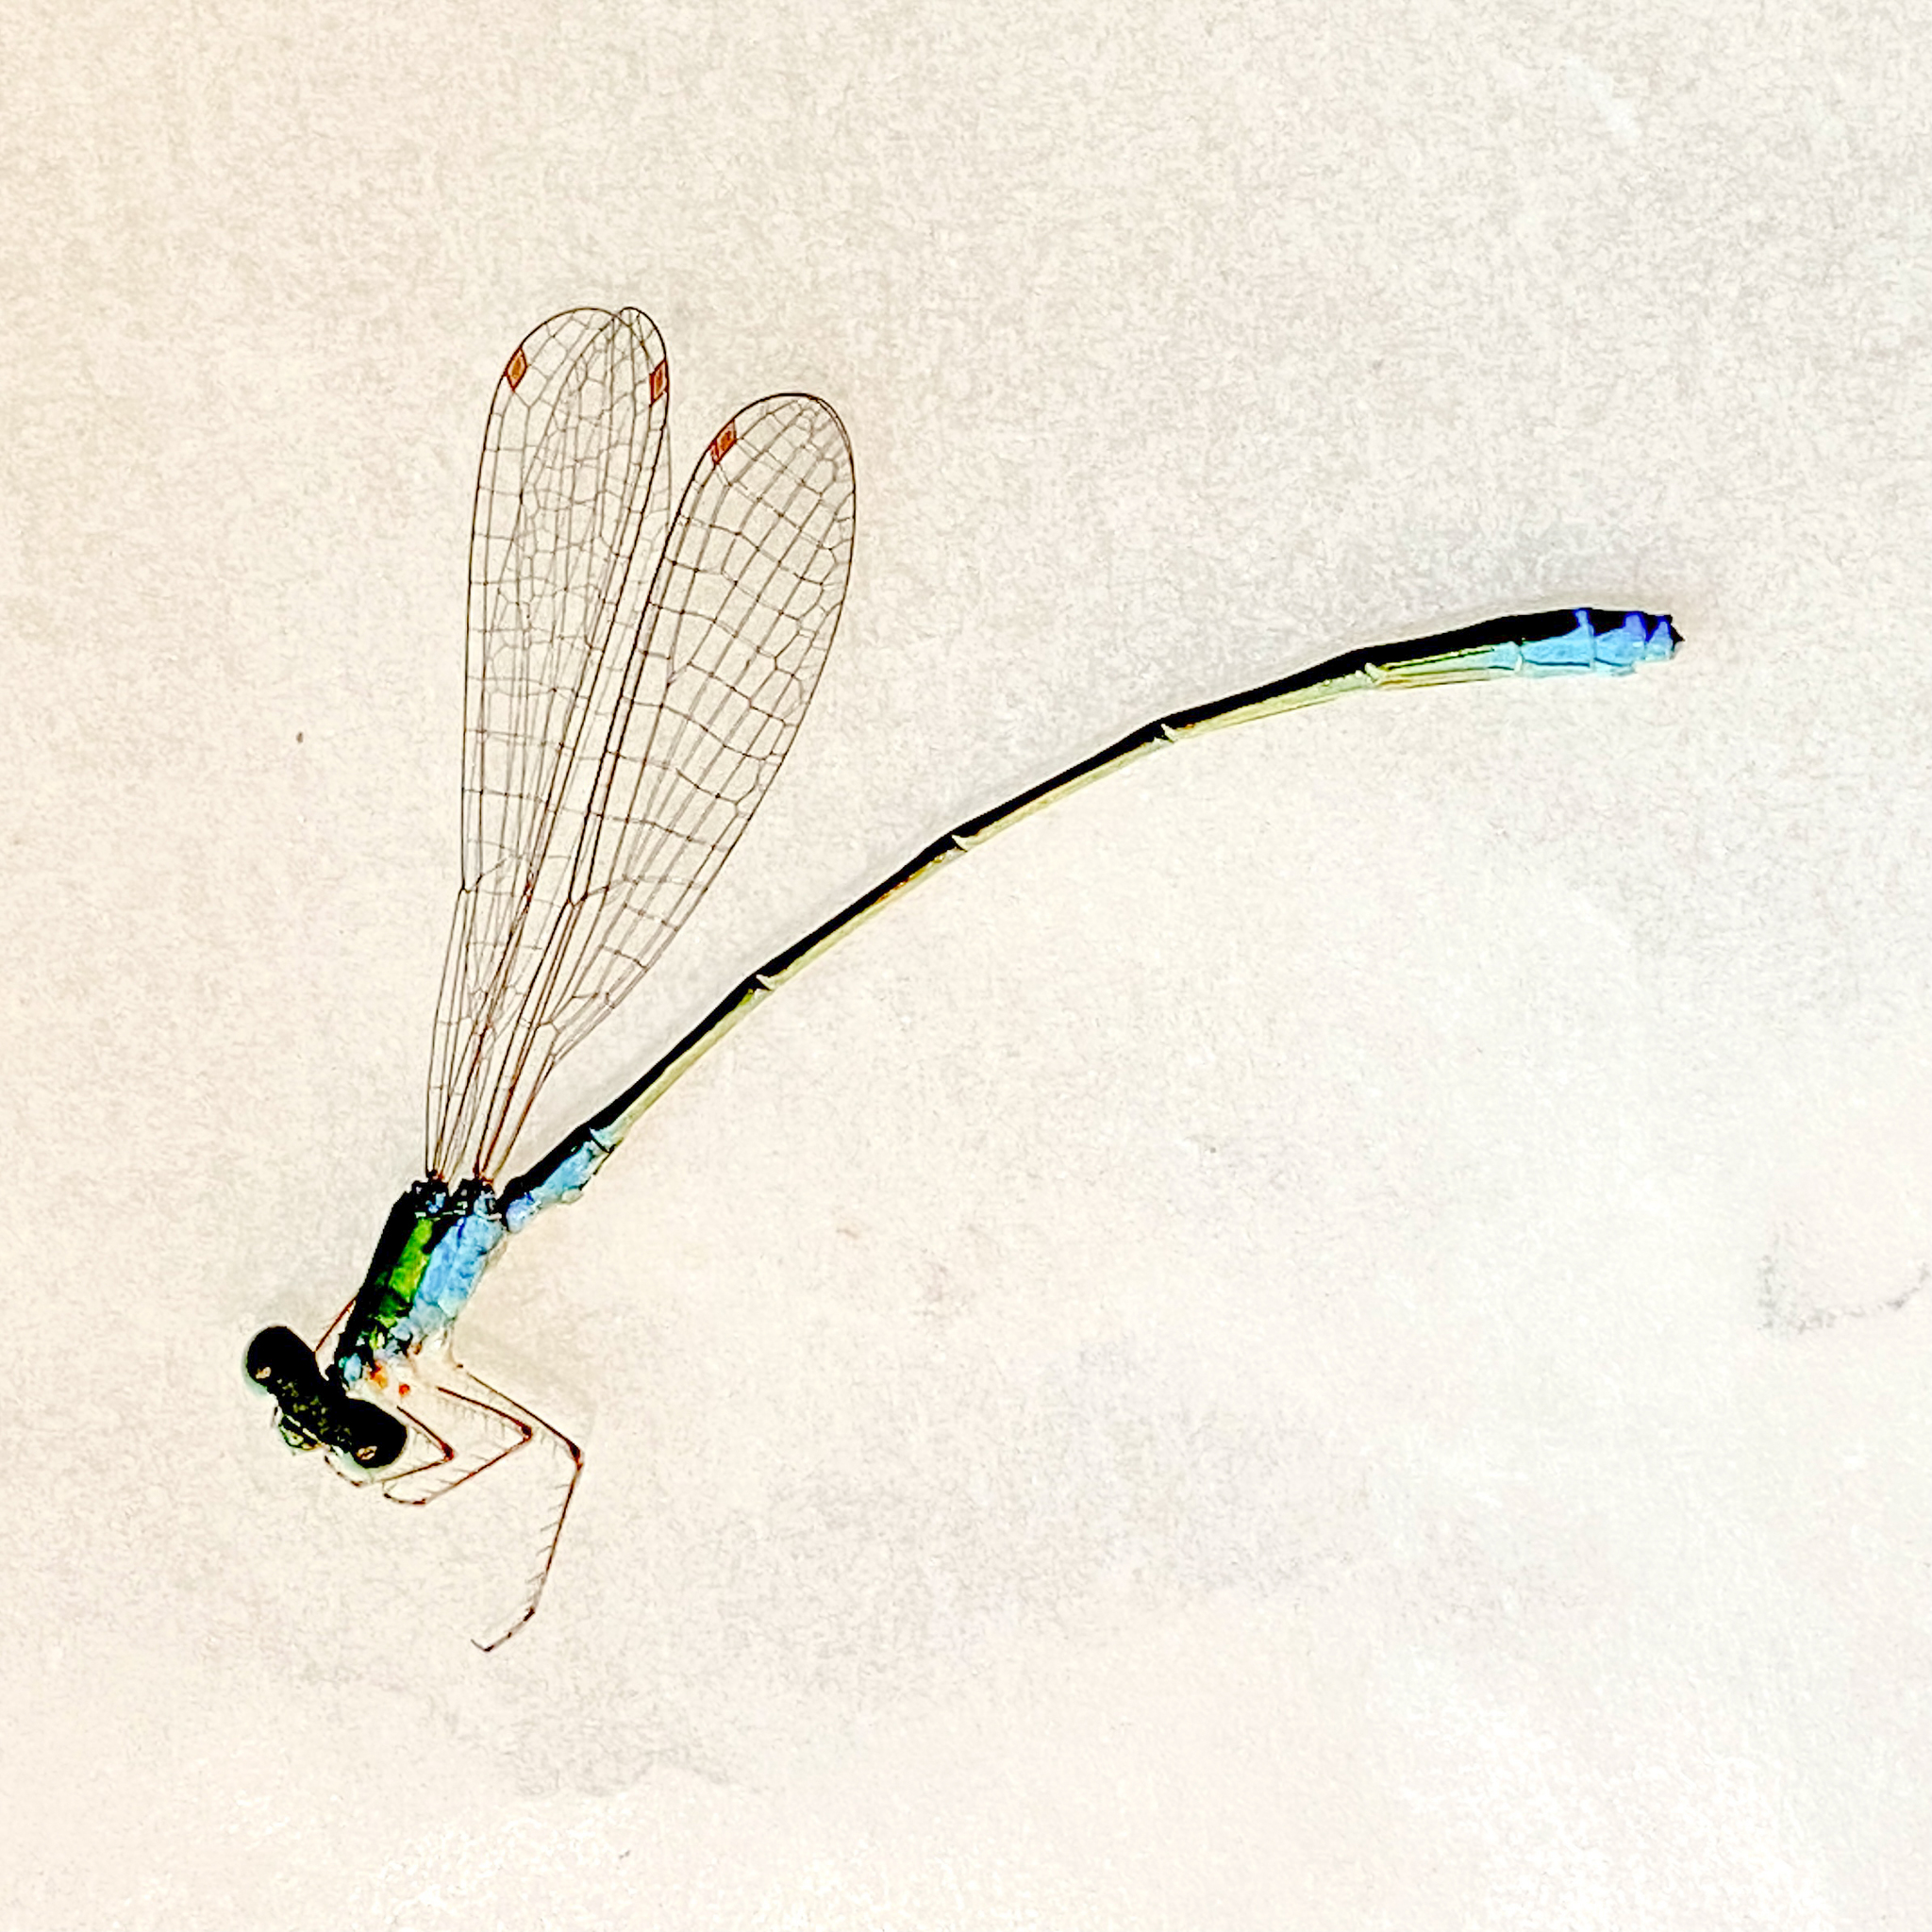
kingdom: Animalia
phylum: Arthropoda
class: Insecta
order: Odonata
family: Coenagrionidae
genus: Nehalennia
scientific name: Nehalennia irene
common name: Sedge sprite
